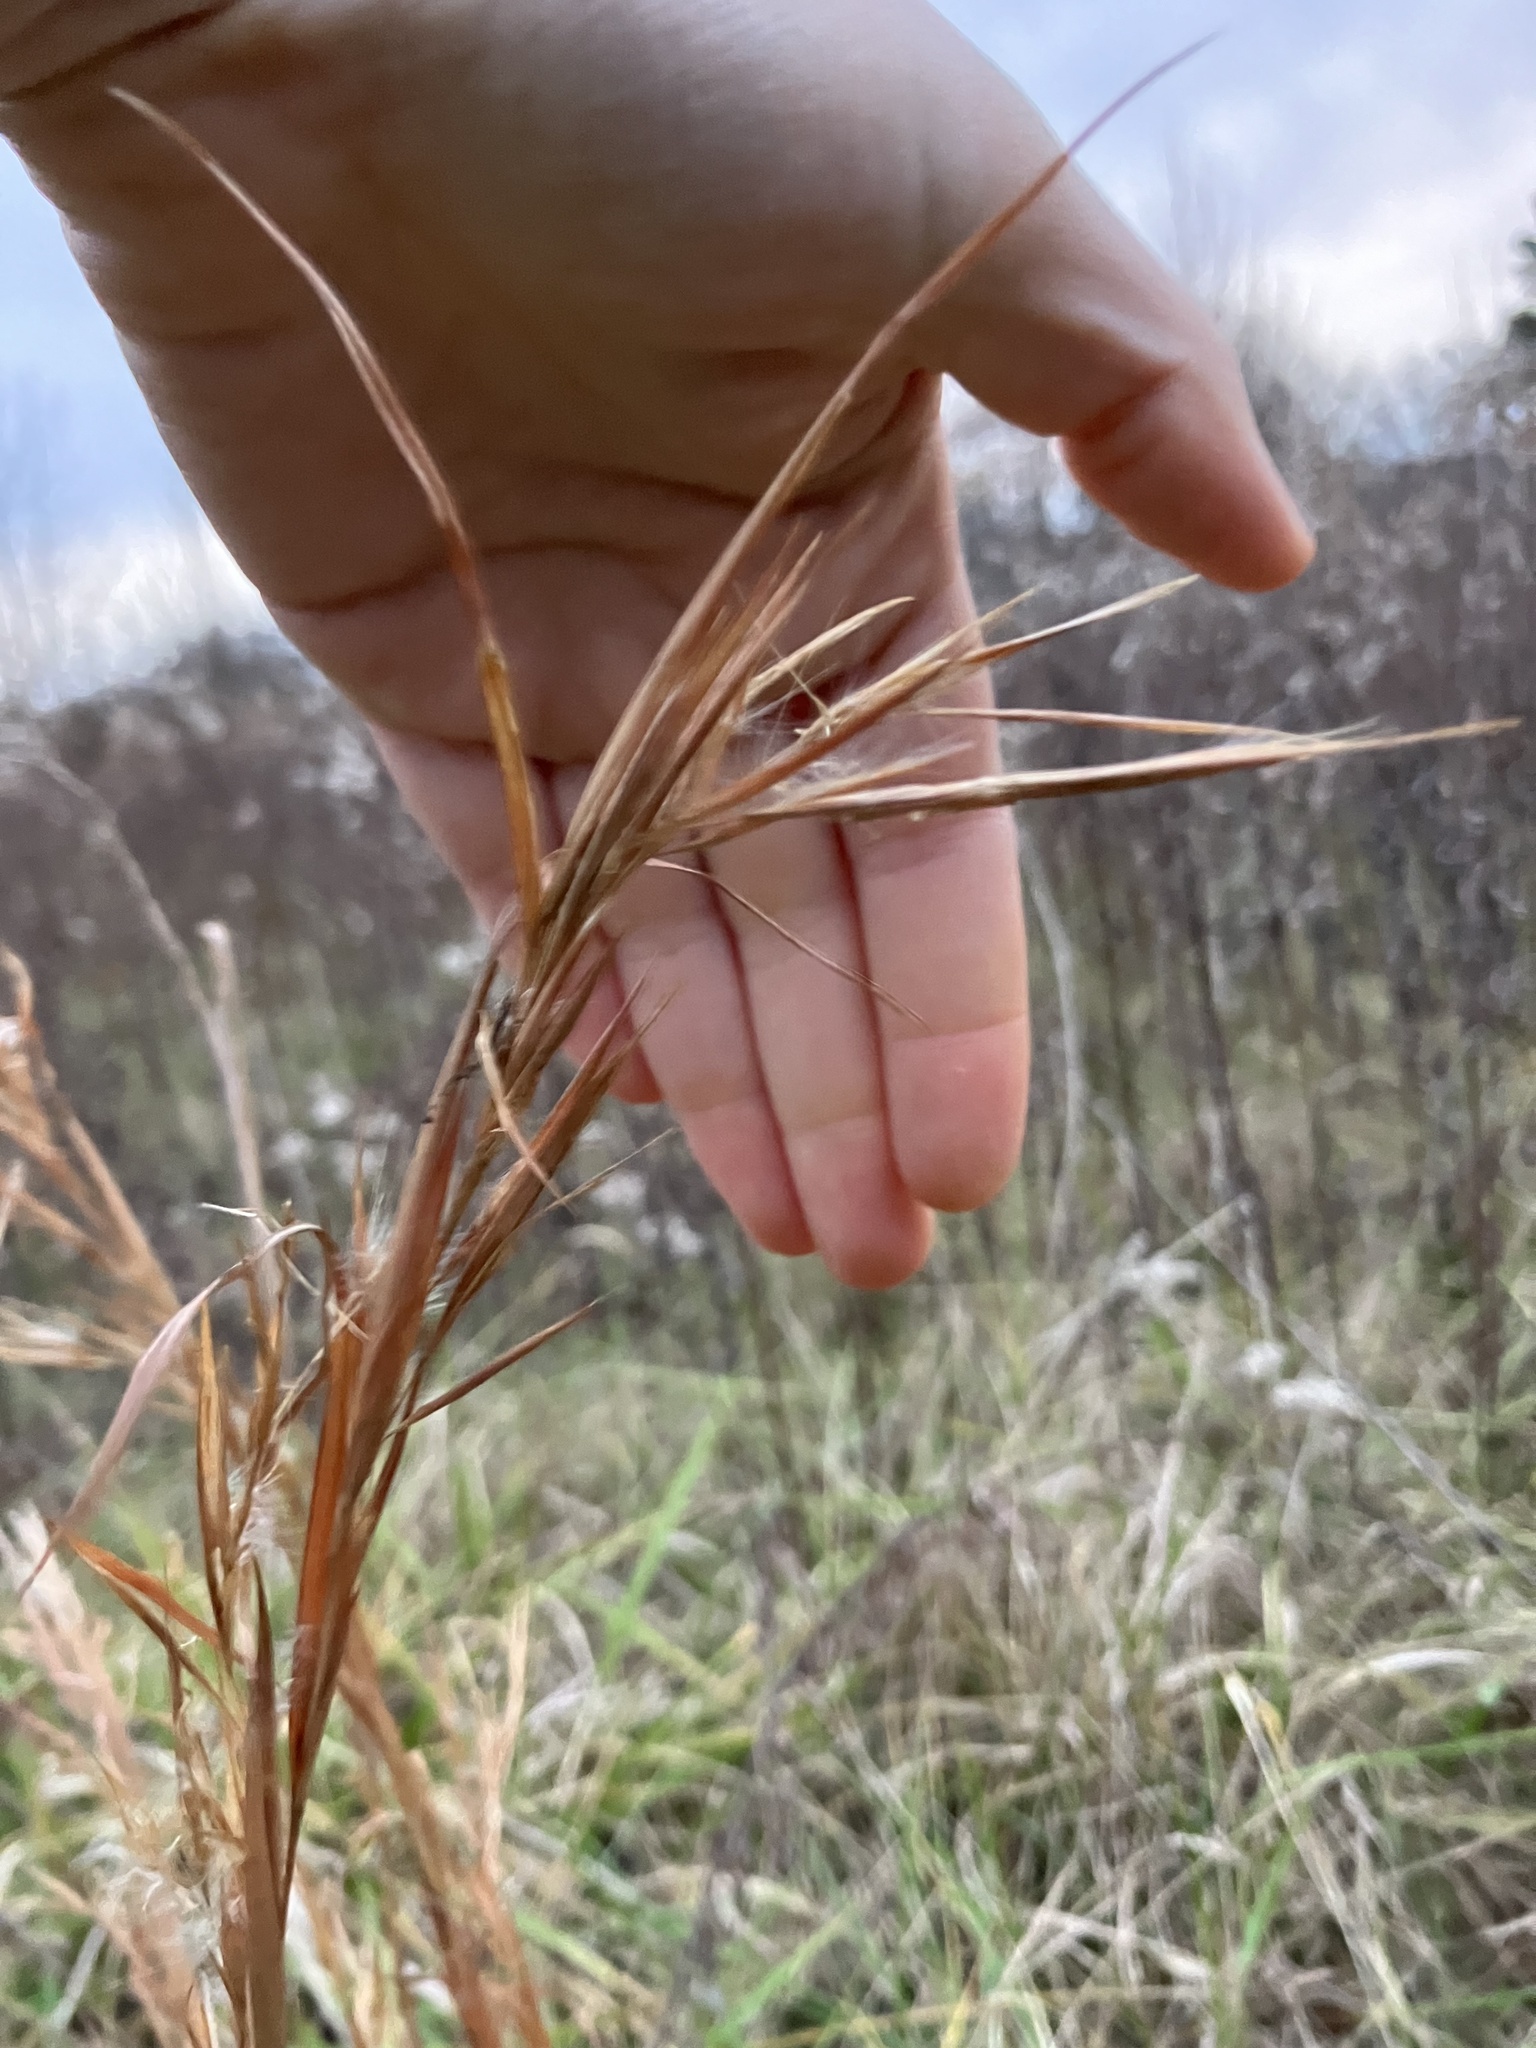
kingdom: Plantae
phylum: Tracheophyta
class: Liliopsida
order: Poales
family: Poaceae
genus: Andropogon
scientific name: Andropogon virginicus
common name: Broomsedge bluestem
